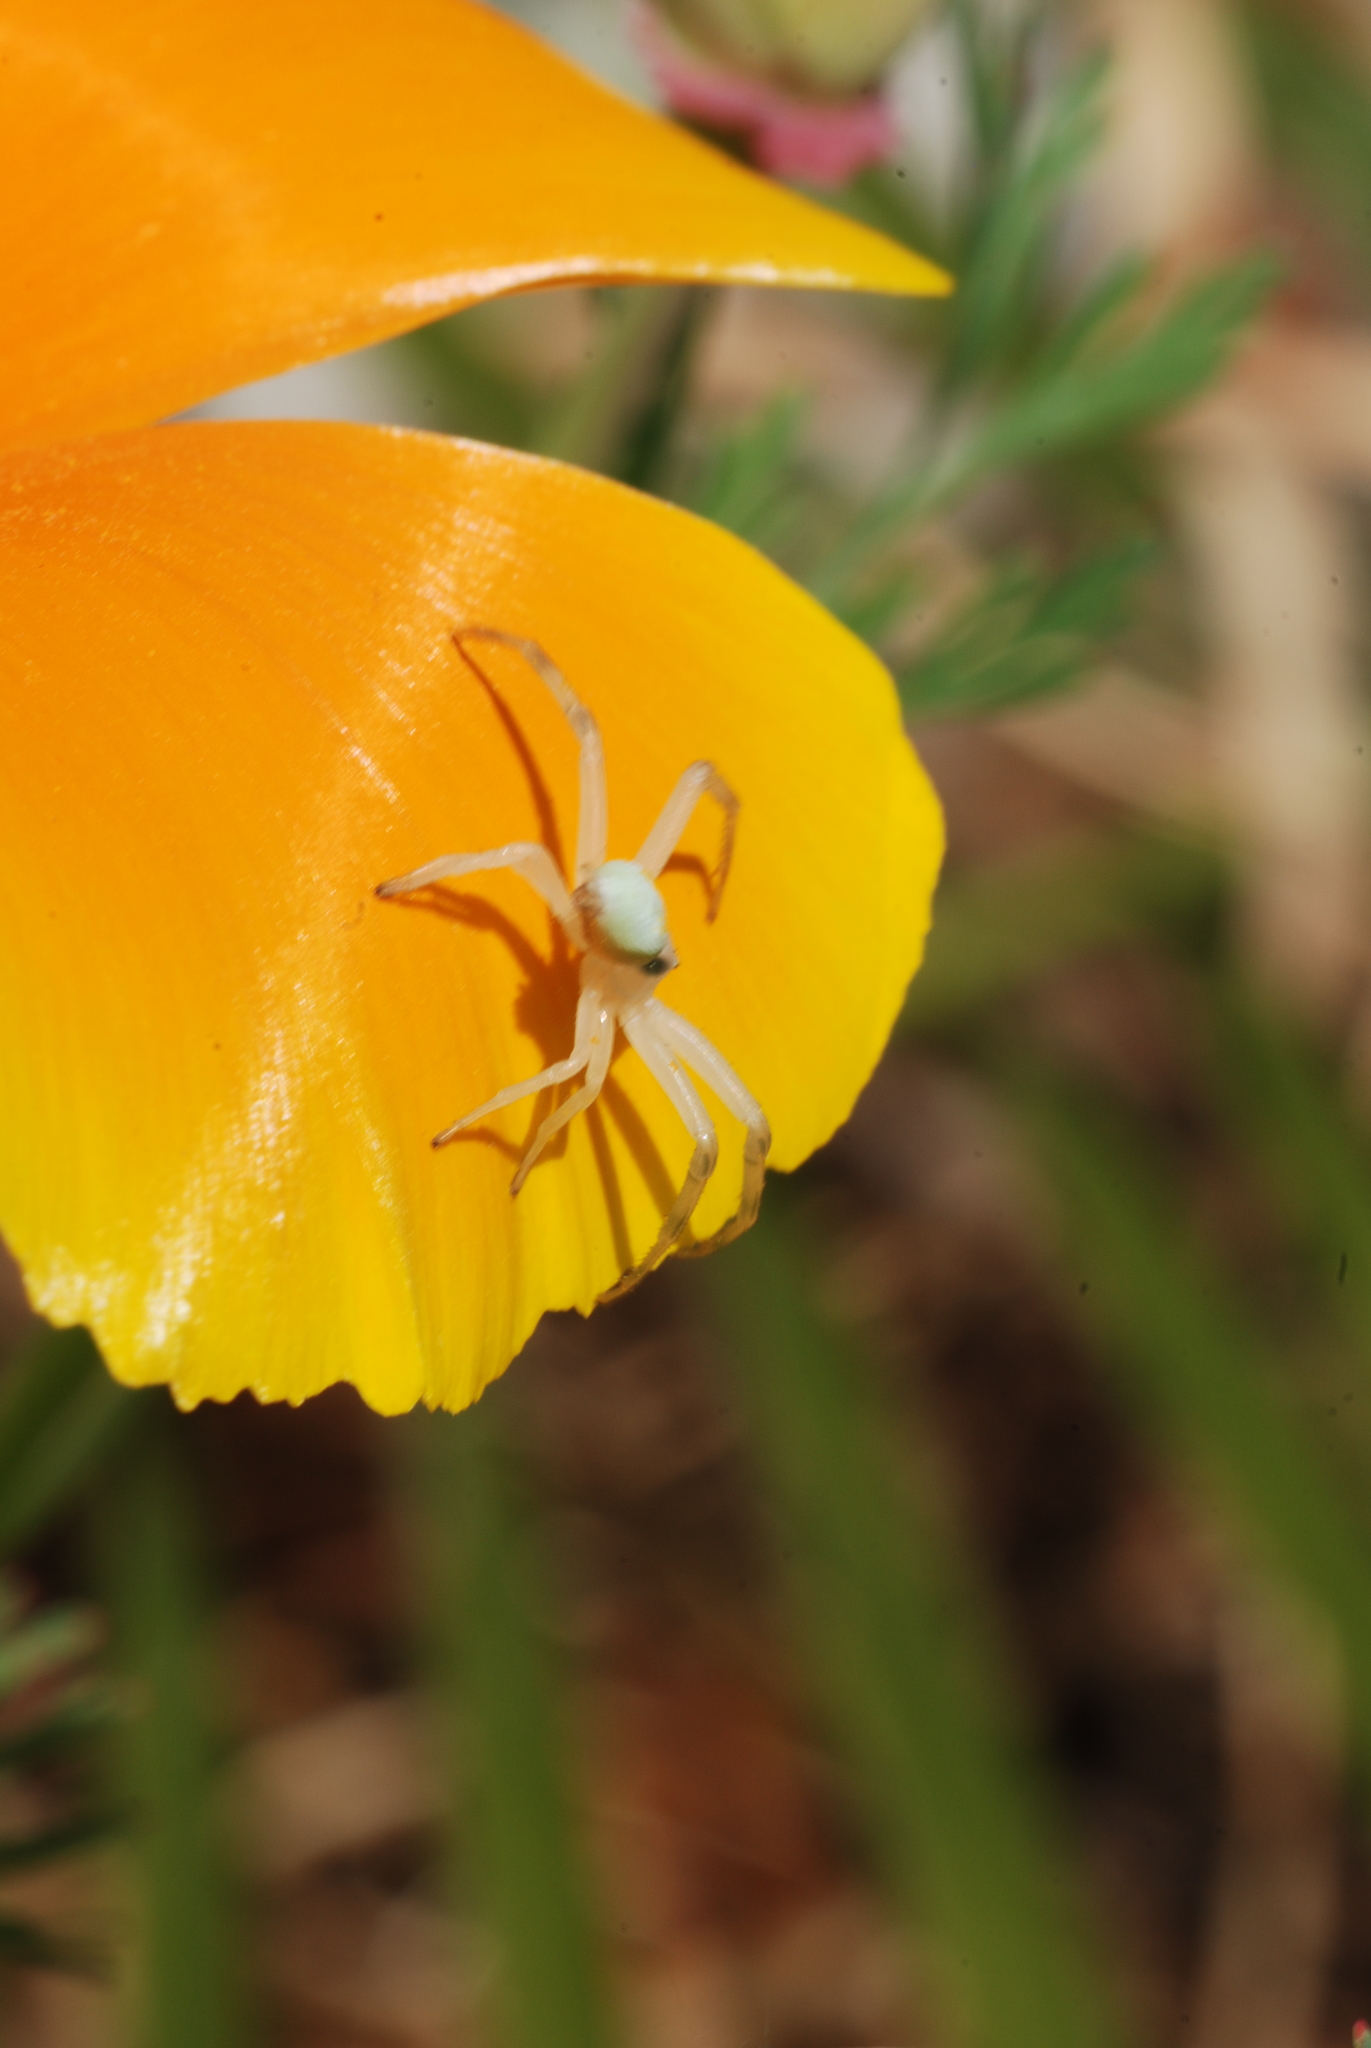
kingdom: Animalia
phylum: Arthropoda
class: Arachnida
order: Araneae
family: Thomisidae
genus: Misumena
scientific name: Misumena vatia
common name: Goldenrod crab spider
